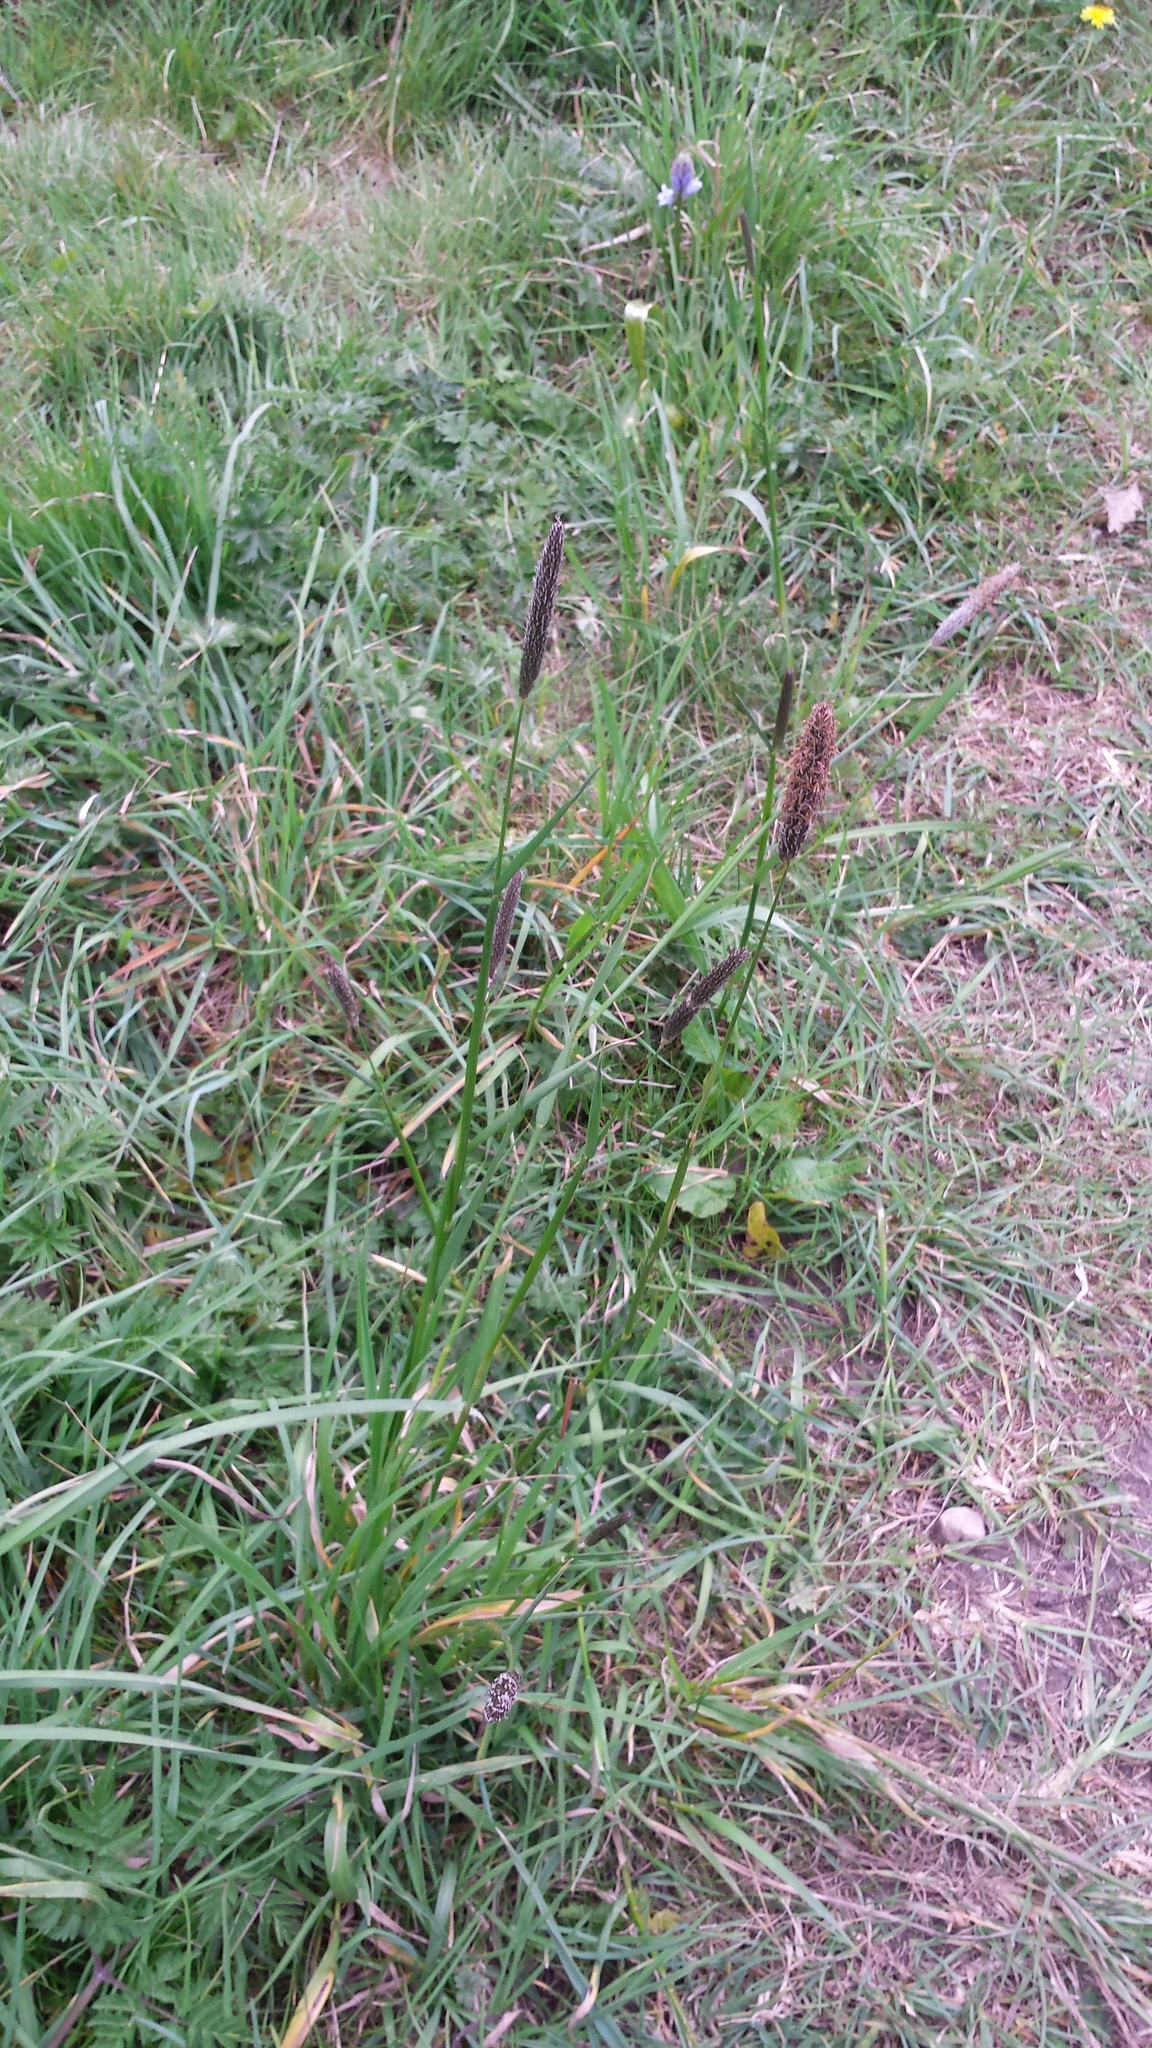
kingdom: Plantae
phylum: Tracheophyta
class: Liliopsida
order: Poales
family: Poaceae
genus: Alopecurus
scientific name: Alopecurus pratensis
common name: Meadow foxtail
